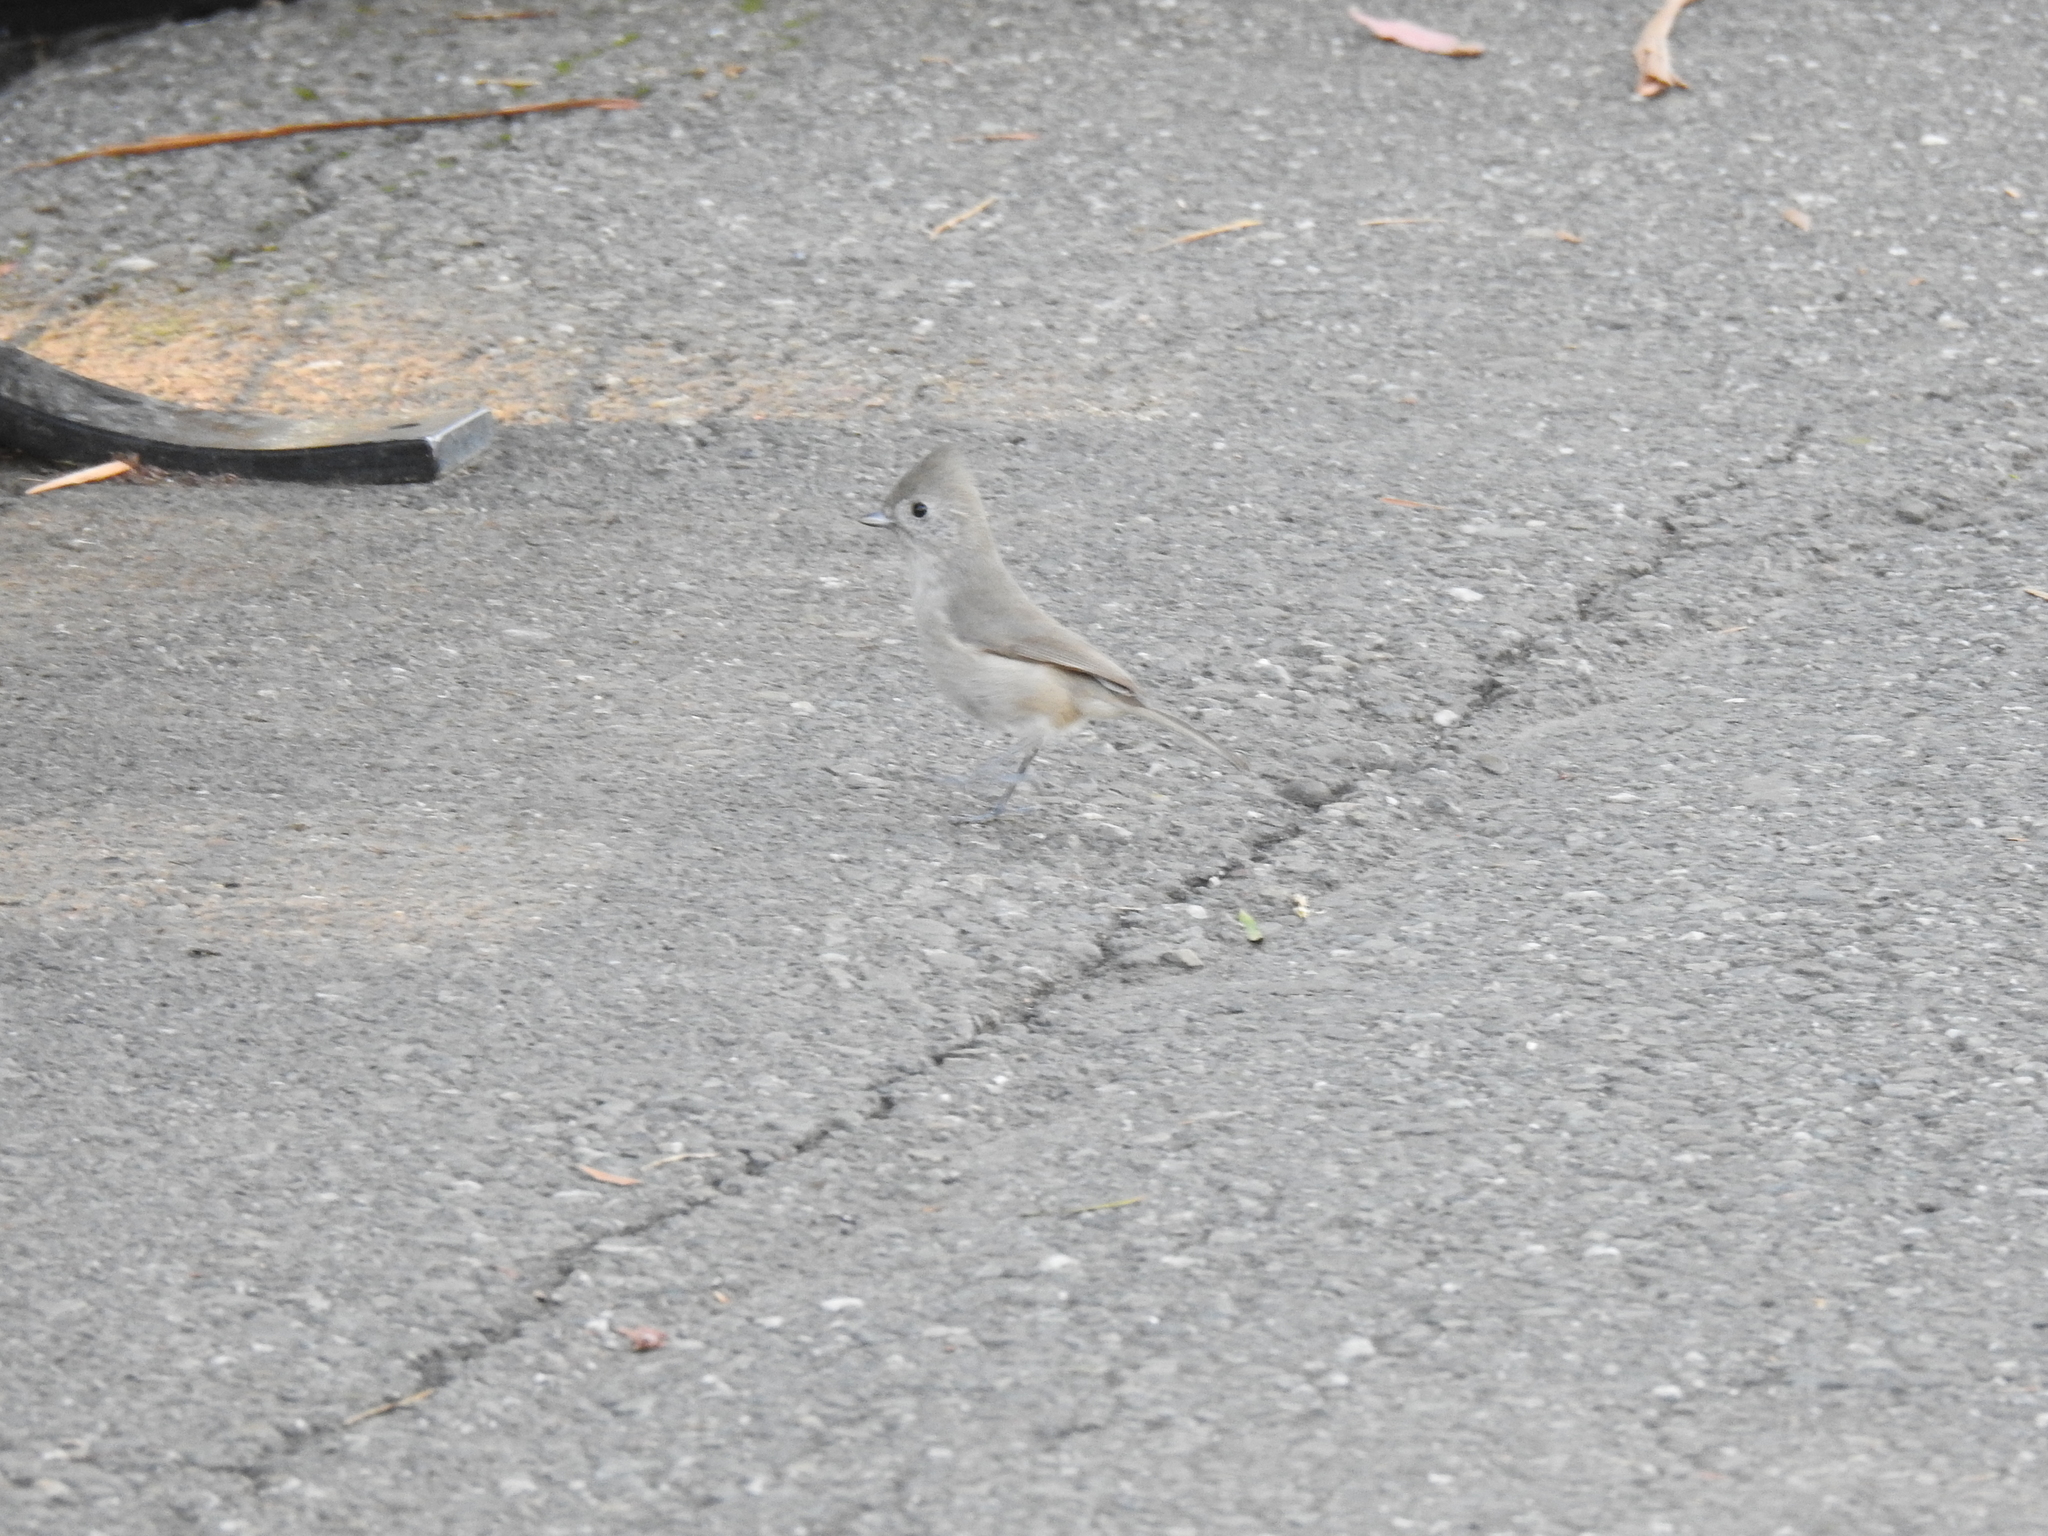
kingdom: Animalia
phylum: Chordata
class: Aves
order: Passeriformes
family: Paridae
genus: Baeolophus
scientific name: Baeolophus inornatus
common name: Oak titmouse
